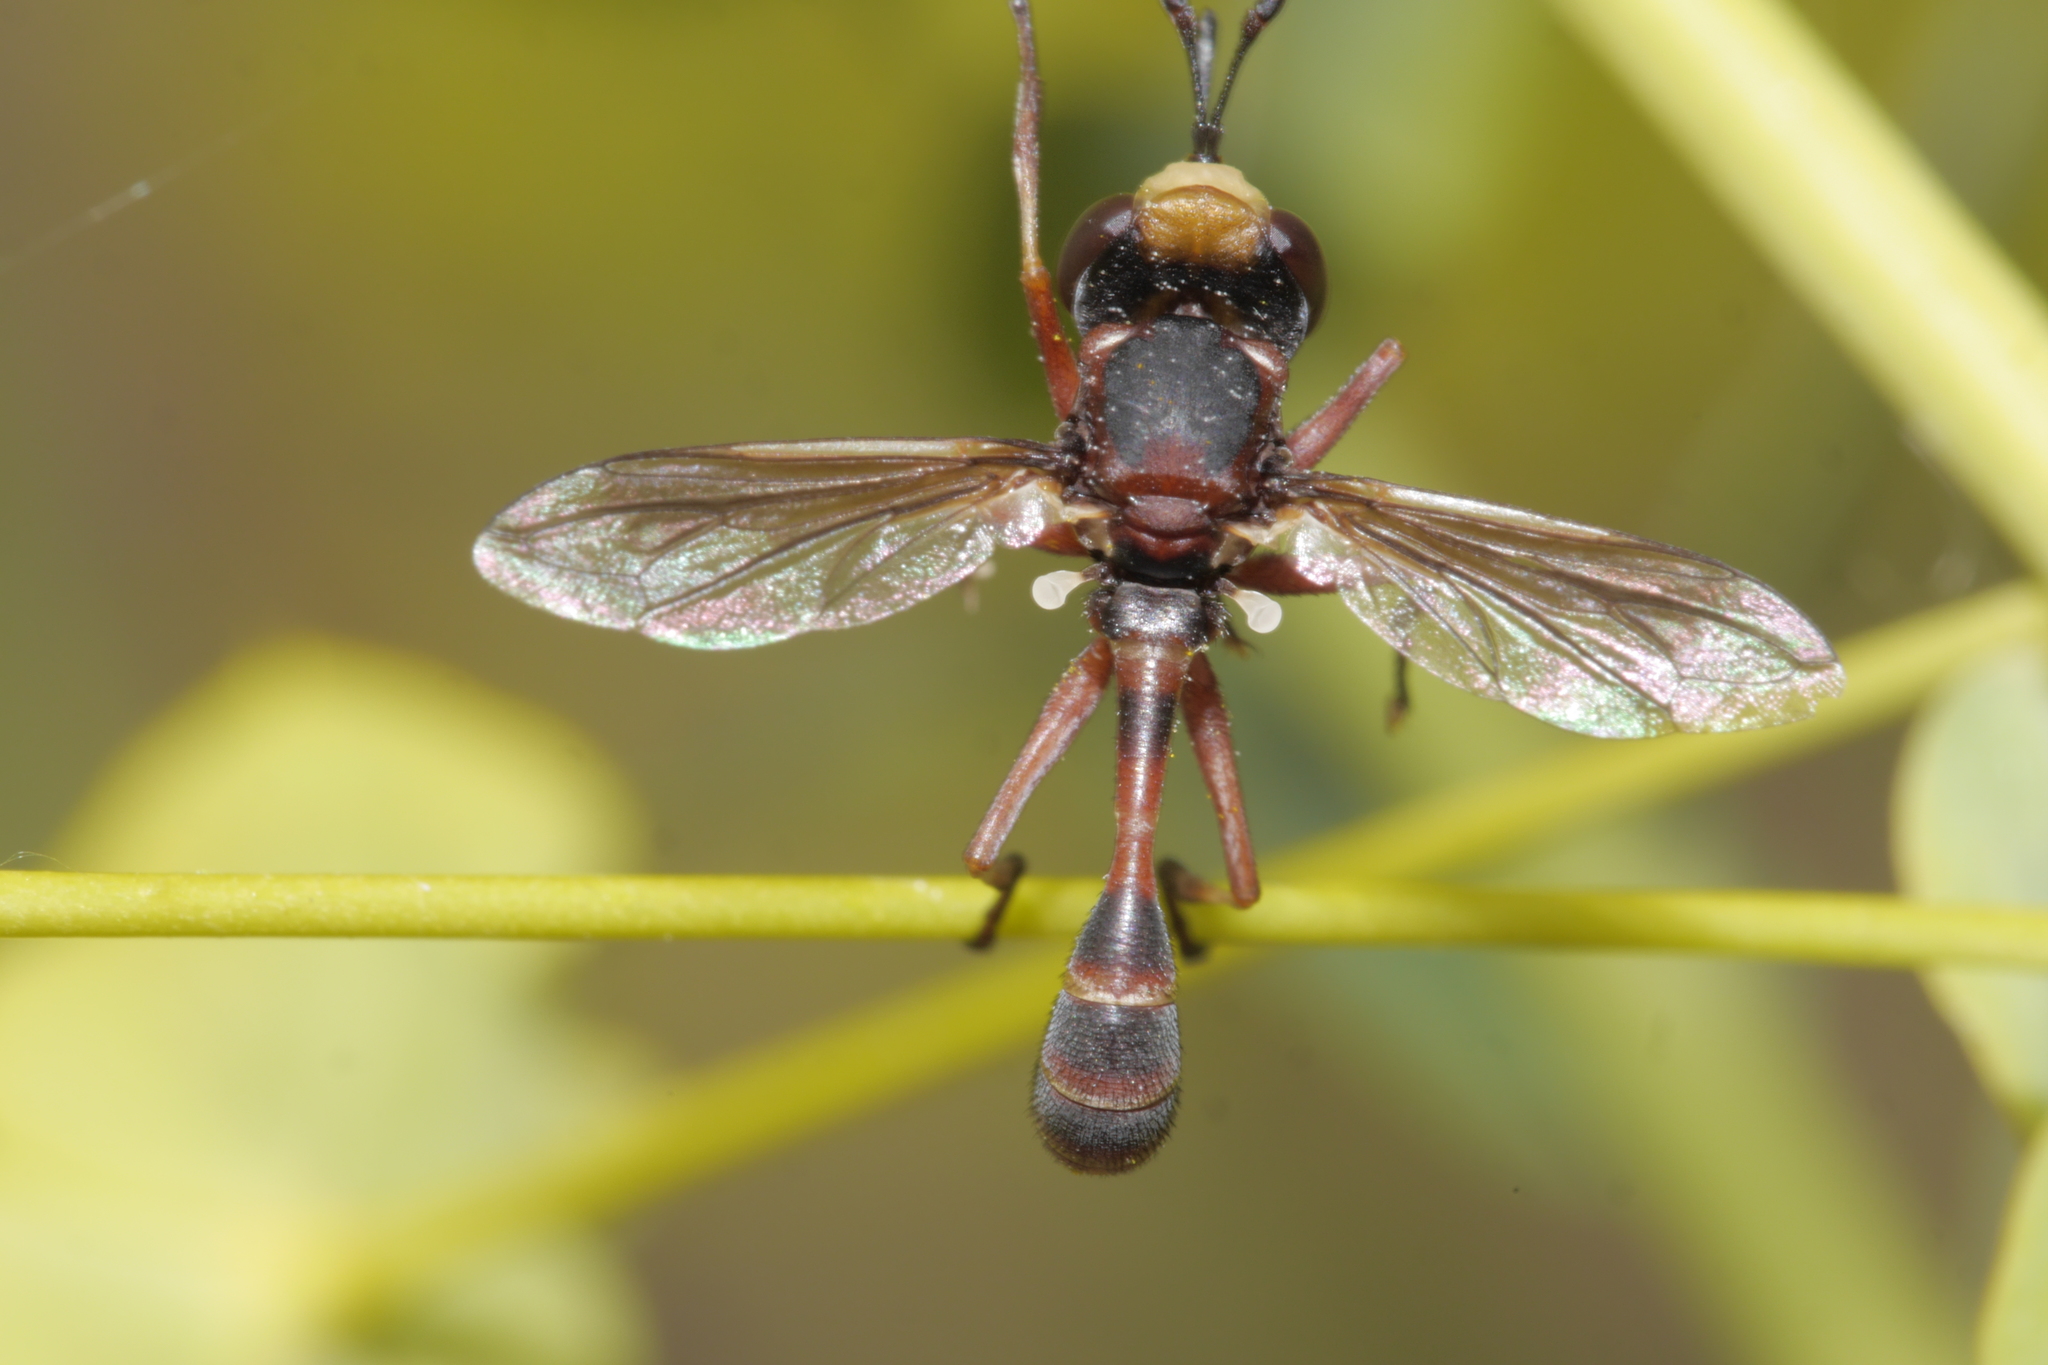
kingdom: Animalia
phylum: Arthropoda
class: Insecta
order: Diptera
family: Conopidae
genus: Physocephala
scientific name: Physocephala vittata
